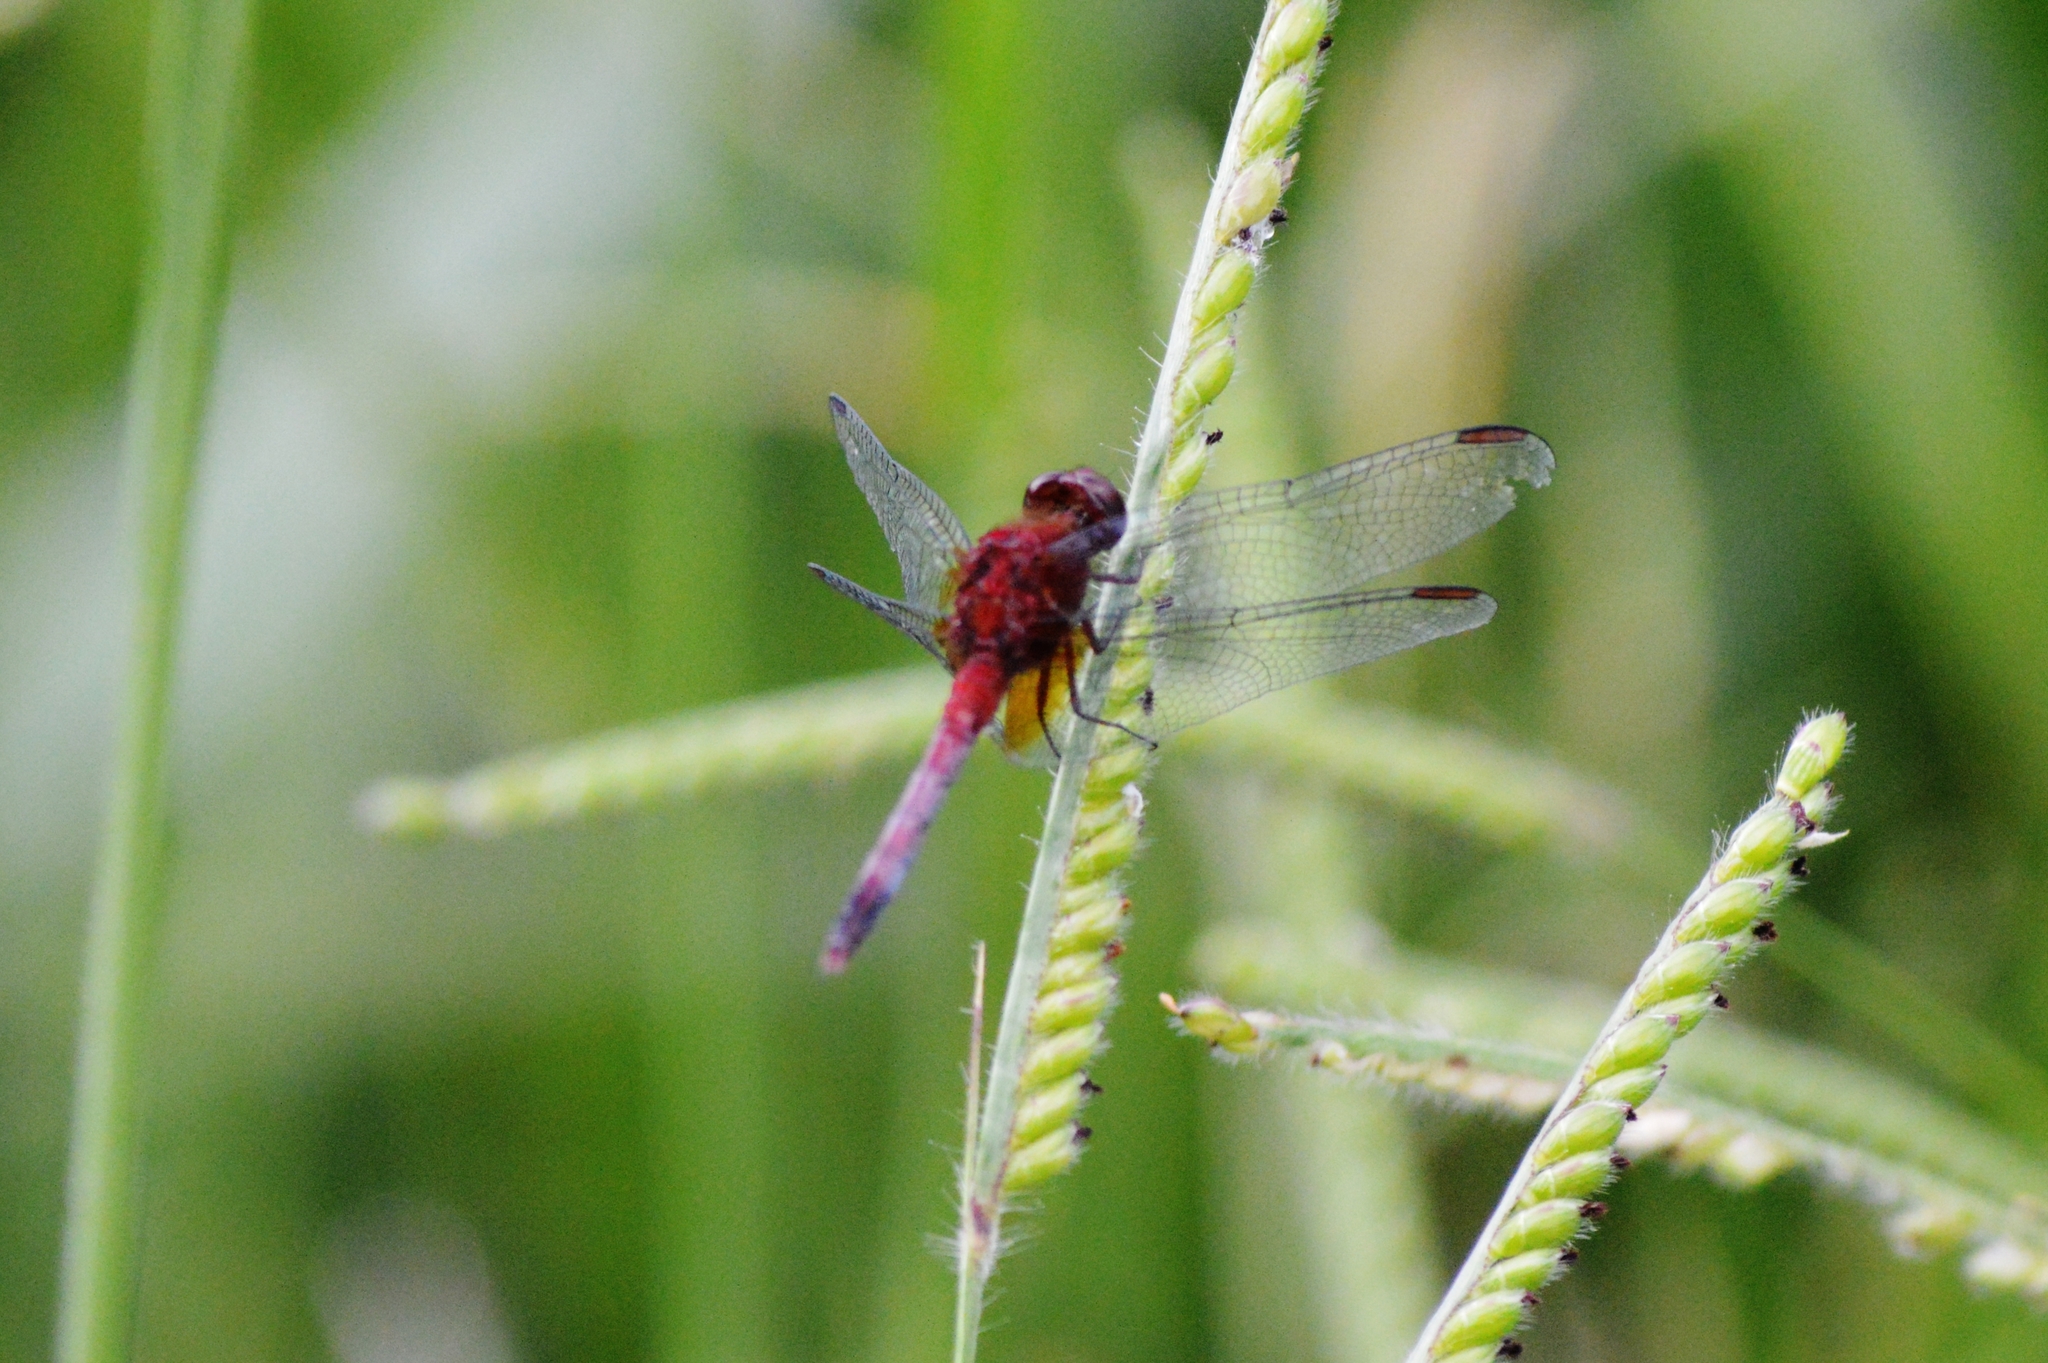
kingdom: Animalia
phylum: Arthropoda
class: Insecta
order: Odonata
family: Libellulidae
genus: Erythrodiplax
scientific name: Erythrodiplax fusca
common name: Red-faced dragonlet
